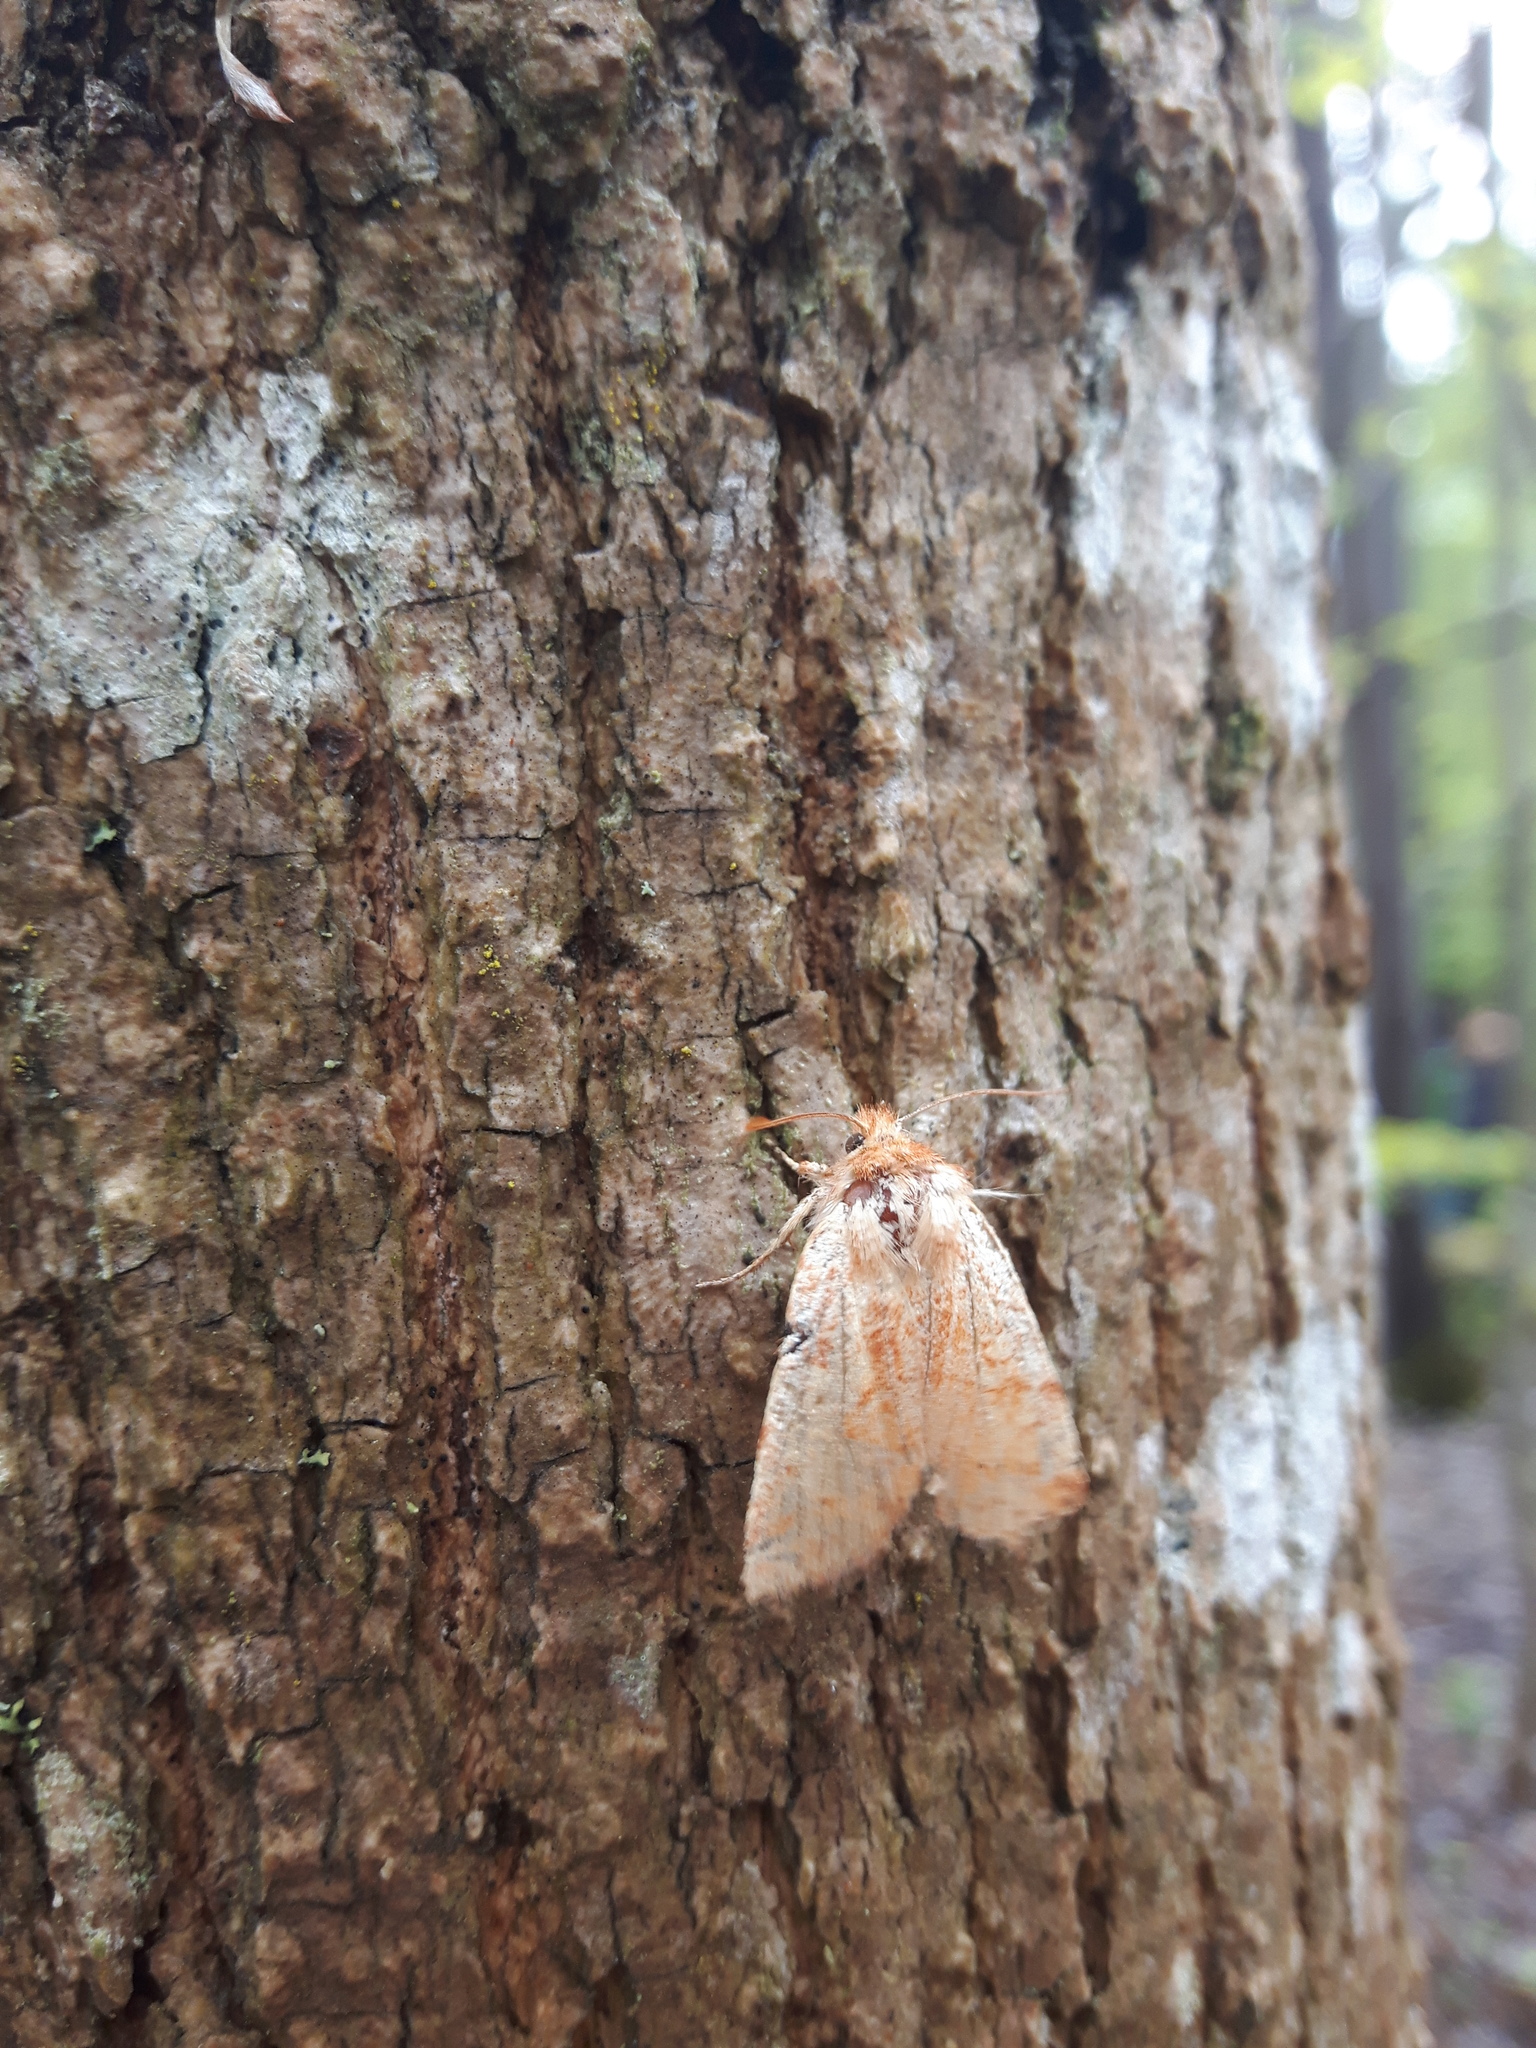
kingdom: Animalia
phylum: Arthropoda
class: Insecta
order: Lepidoptera
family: Noctuidae
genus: Pyreferra
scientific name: Pyreferra pettiti
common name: Pettit's sallow
